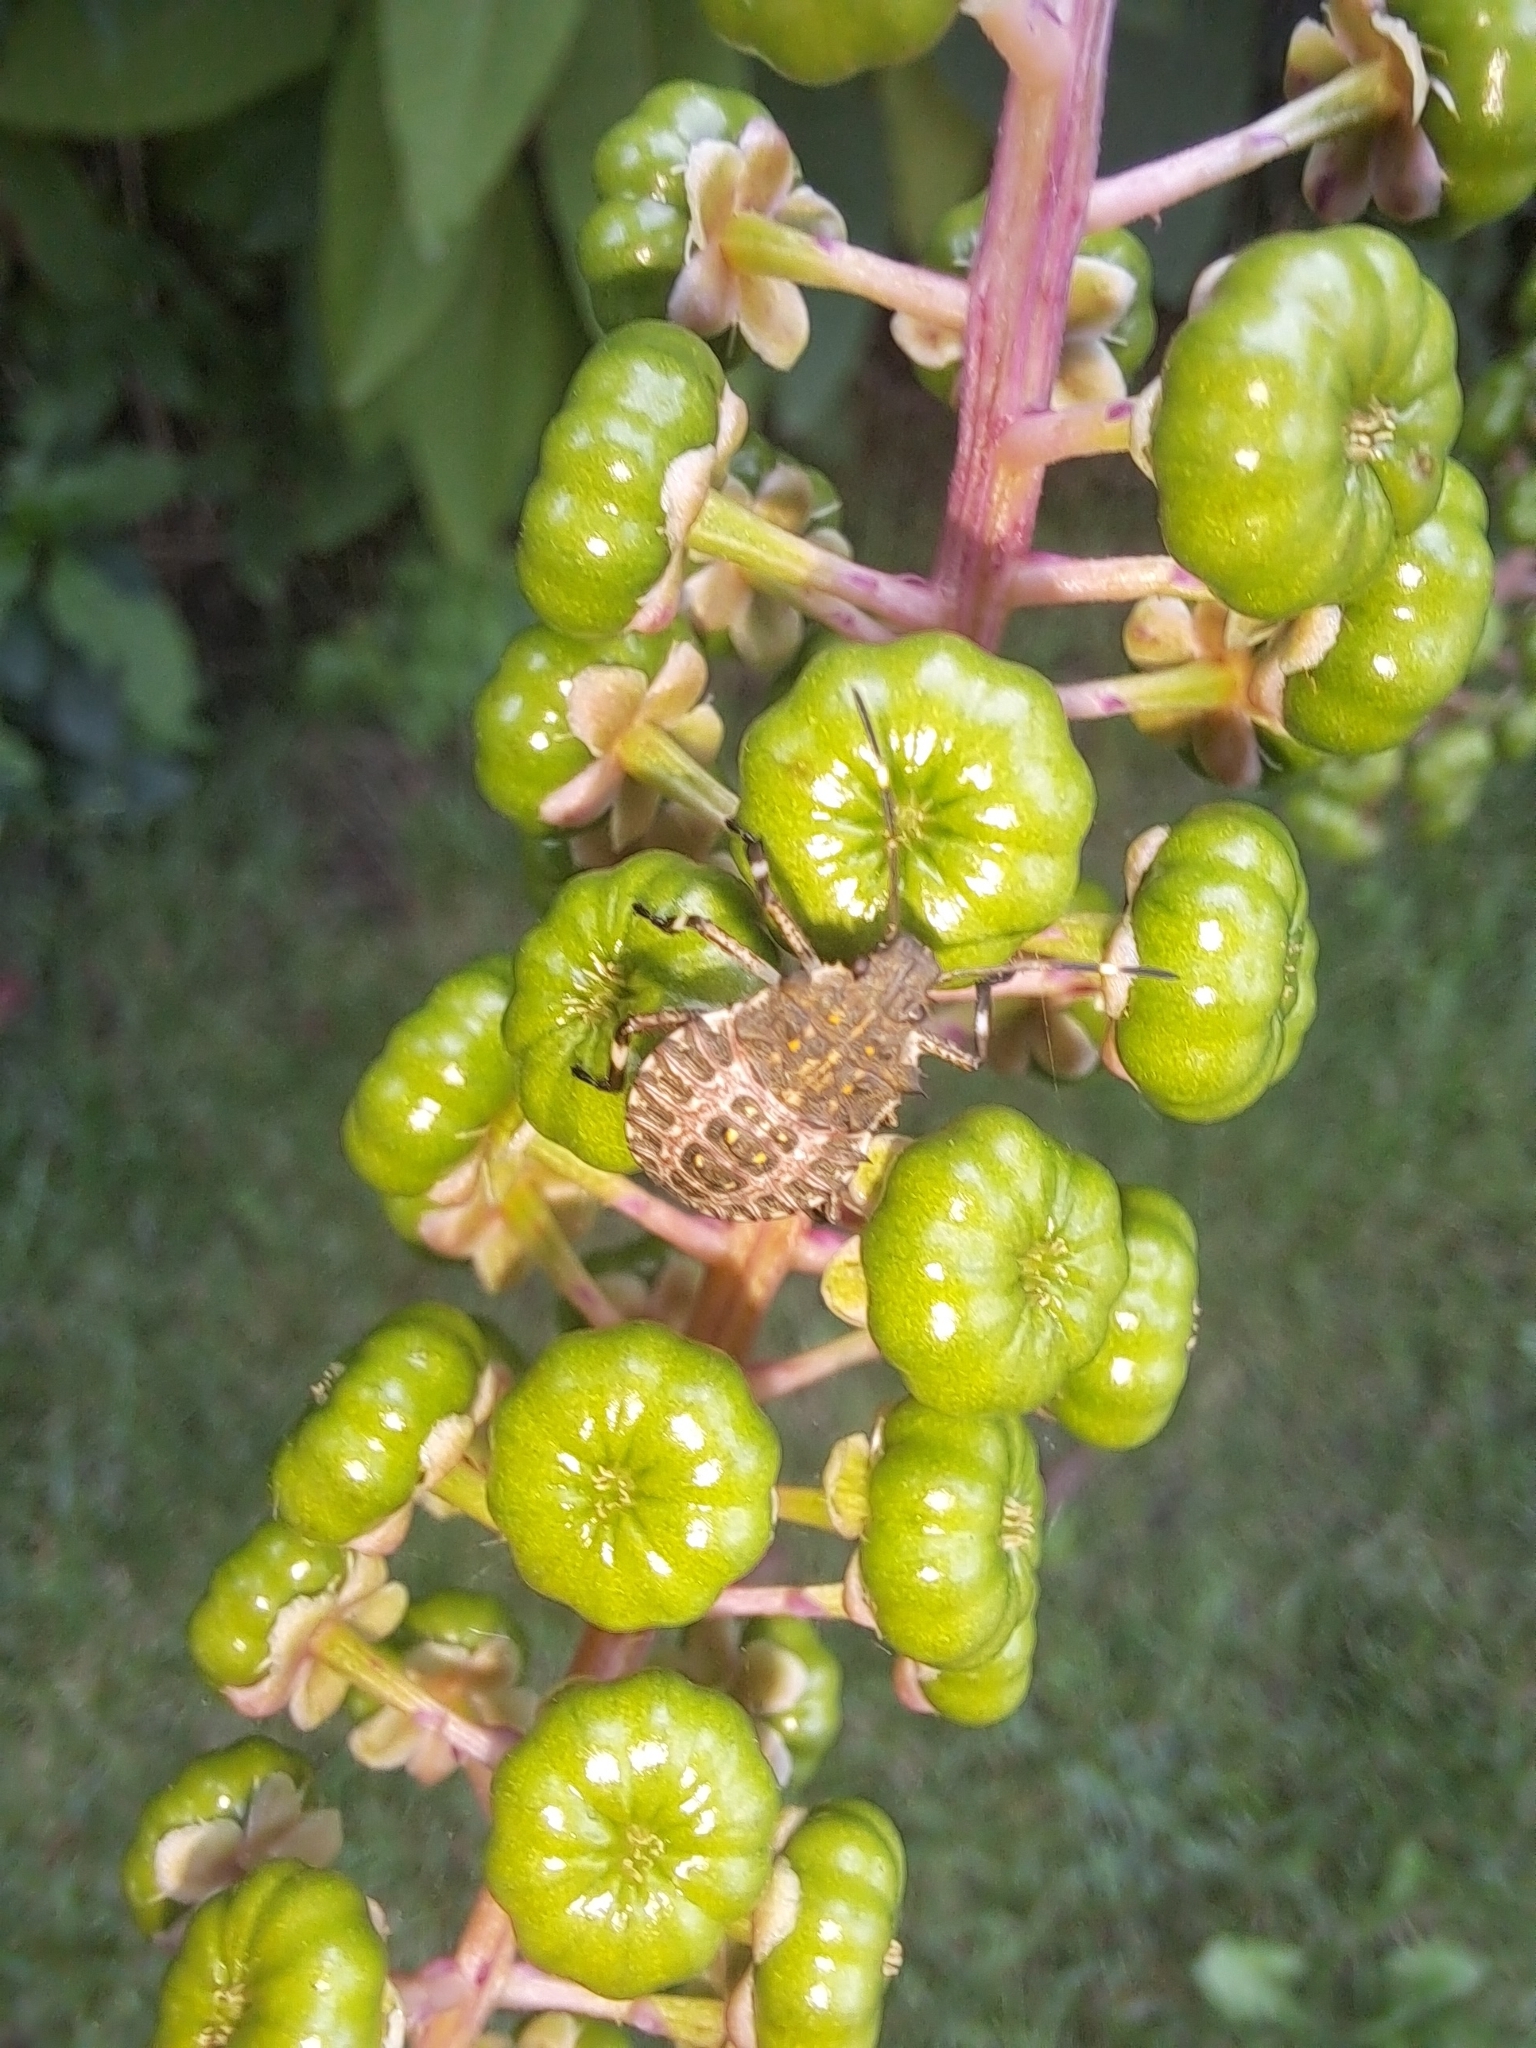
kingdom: Animalia
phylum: Arthropoda
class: Insecta
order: Hemiptera
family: Pentatomidae
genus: Halyomorpha
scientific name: Halyomorpha halys
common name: Brown marmorated stink bug
